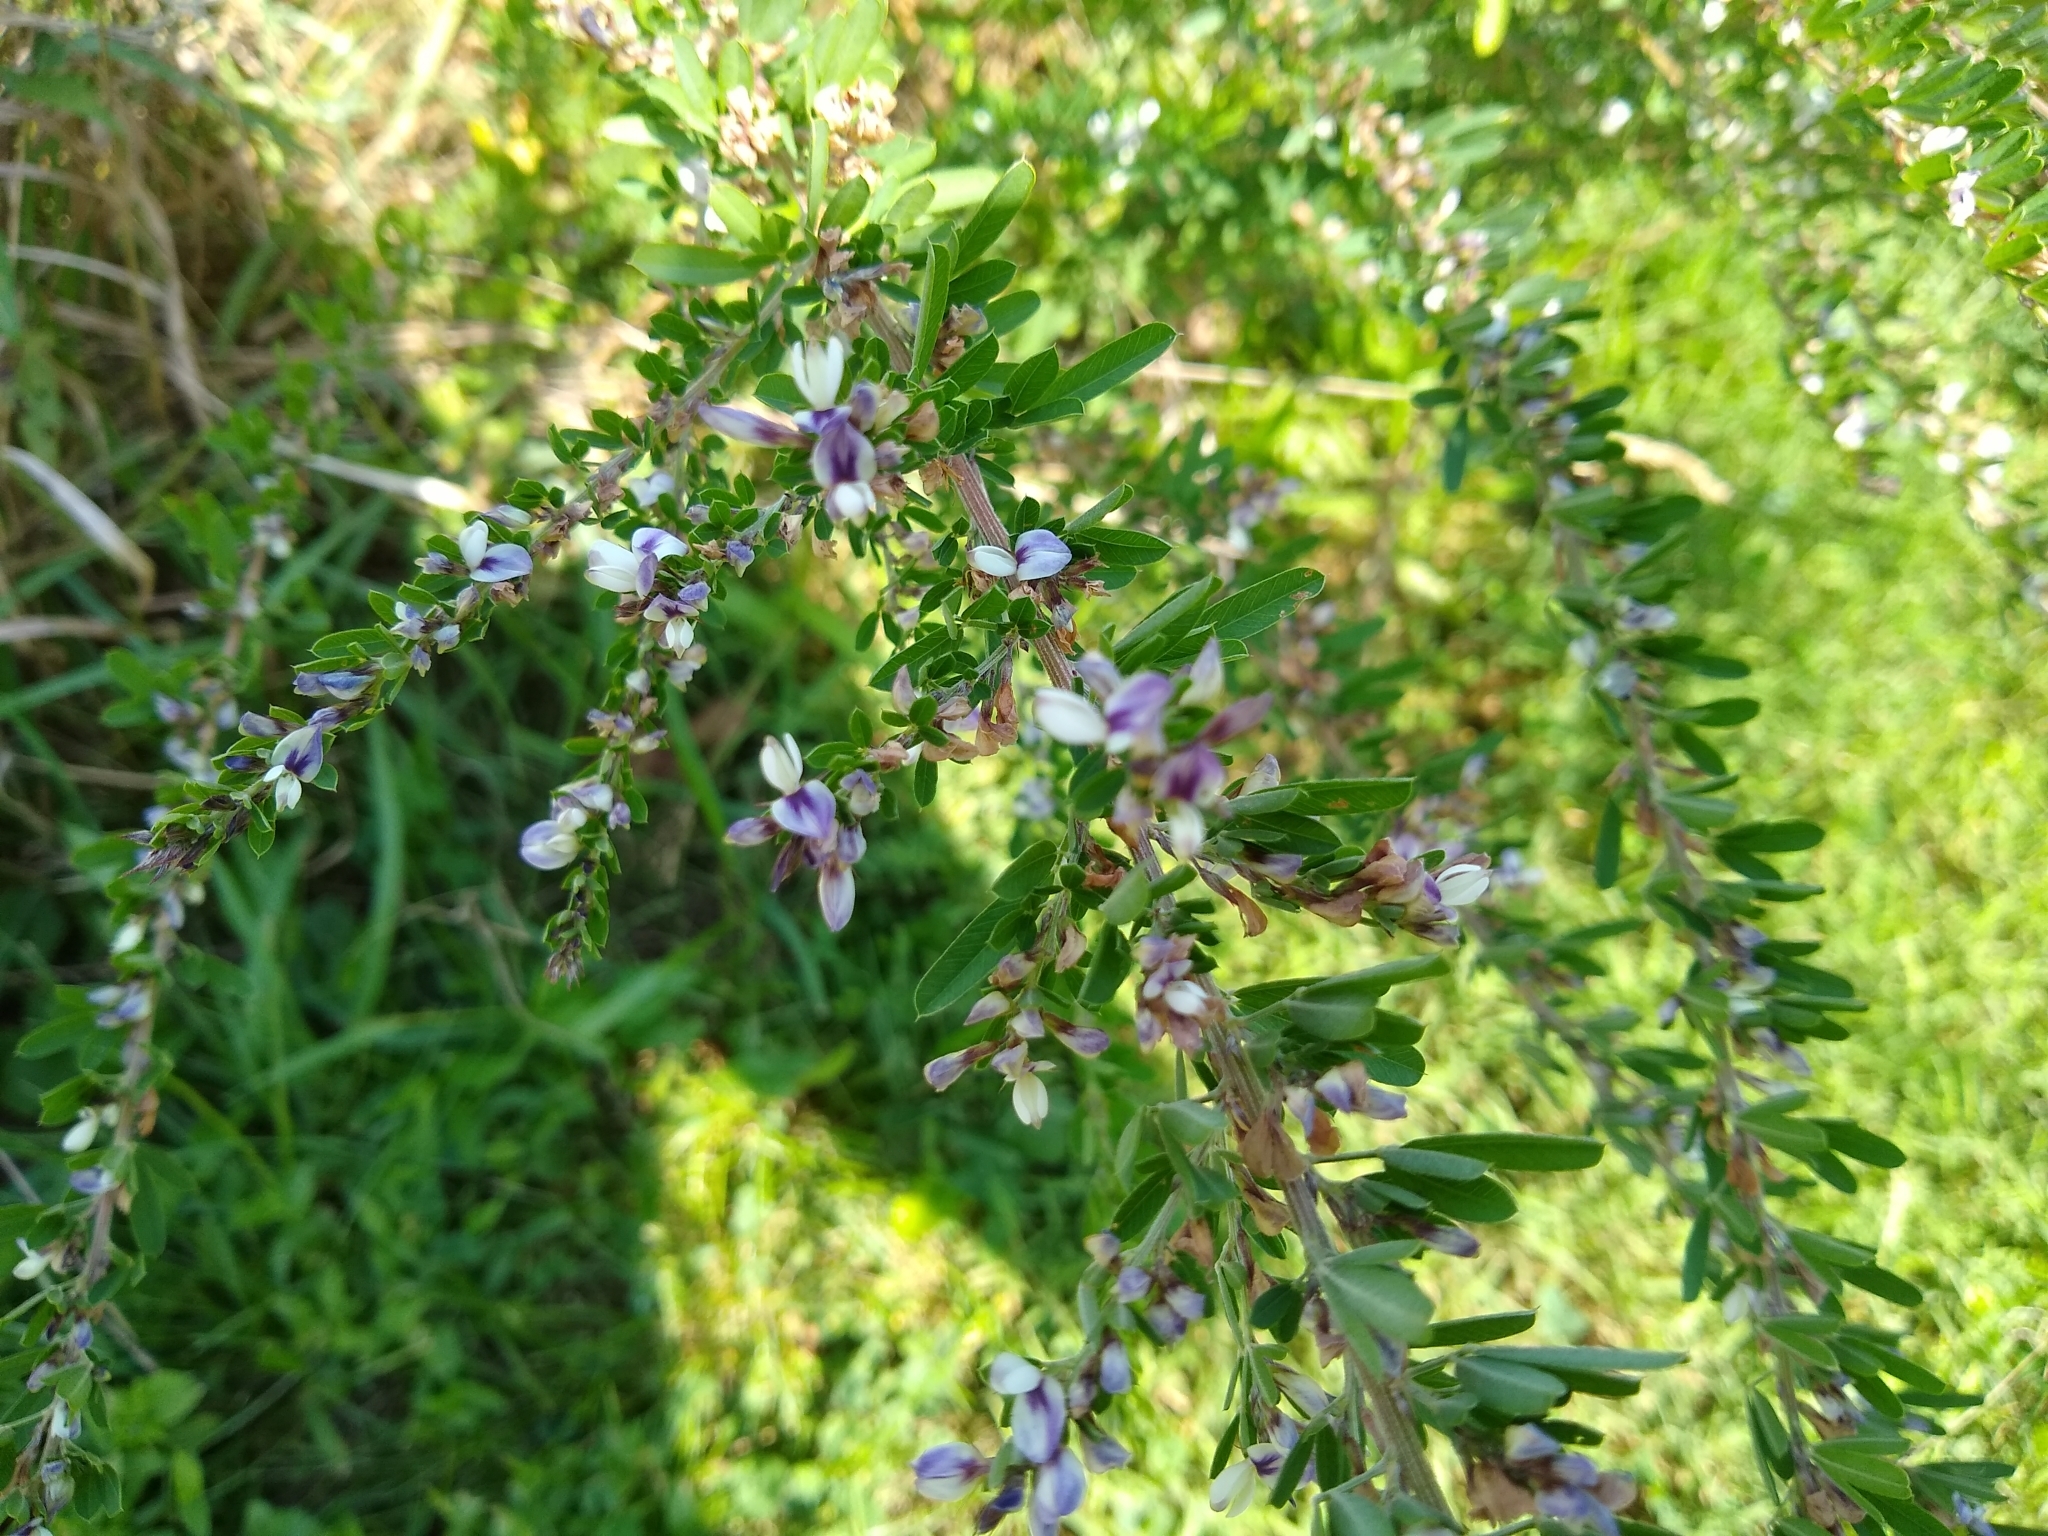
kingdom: Plantae
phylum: Tracheophyta
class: Magnoliopsida
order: Fabales
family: Fabaceae
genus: Lespedeza
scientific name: Lespedeza cuneata
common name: Chinese bush-clover
